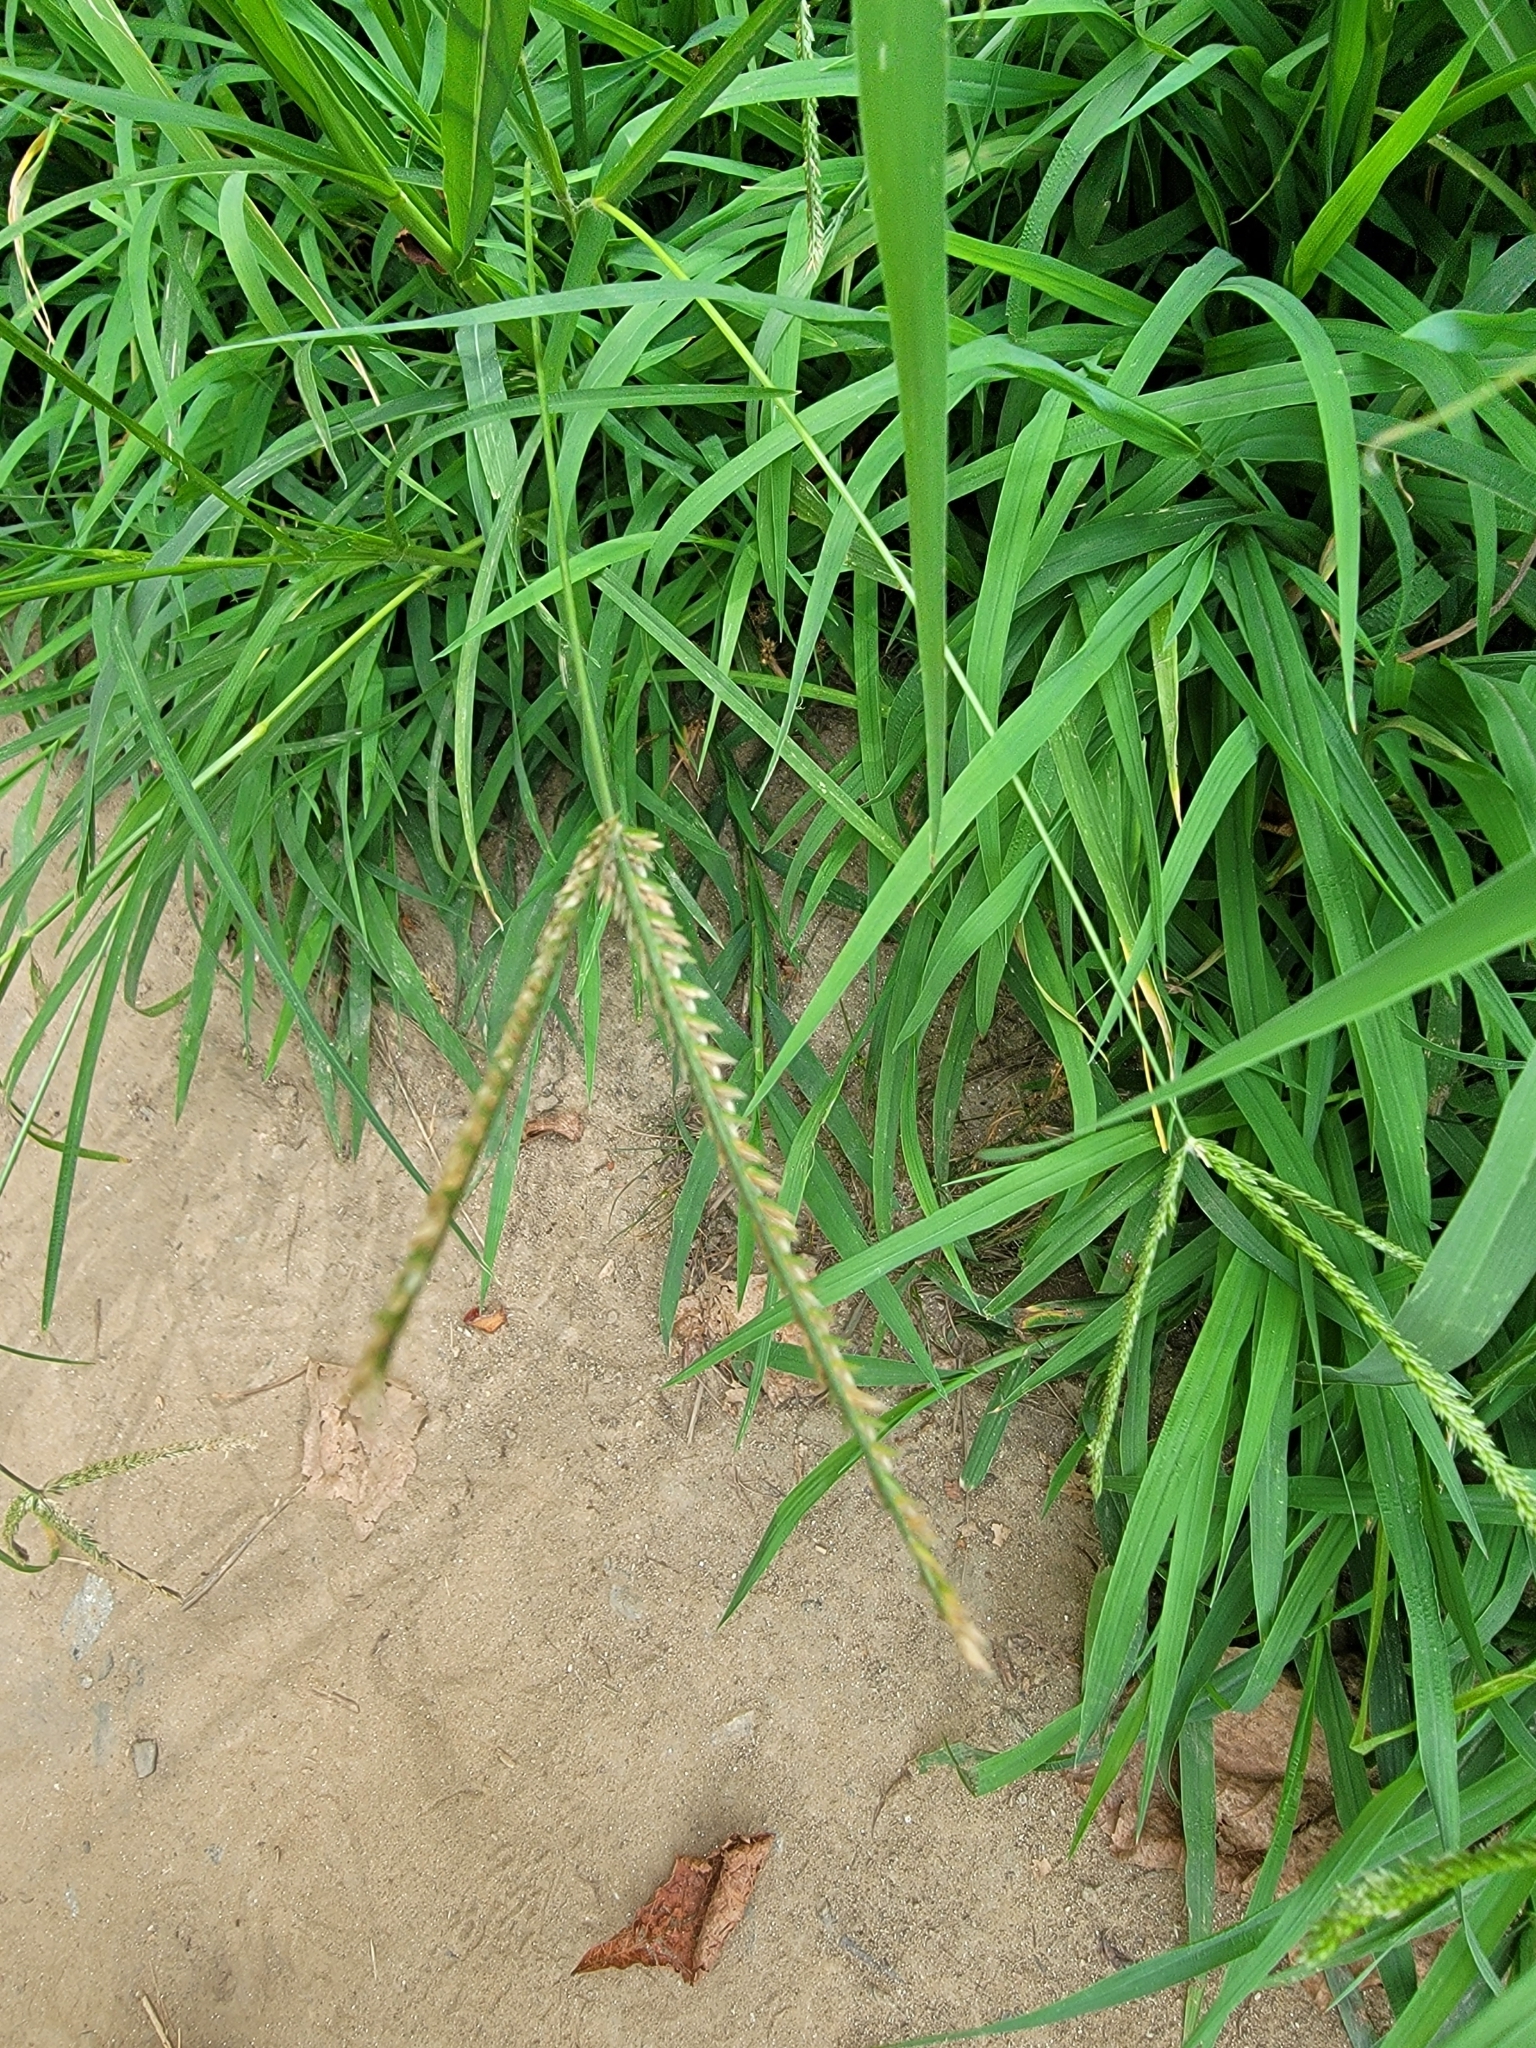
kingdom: Plantae
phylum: Tracheophyta
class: Liliopsida
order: Poales
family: Poaceae
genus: Eleusine
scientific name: Eleusine indica
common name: Yard-grass
